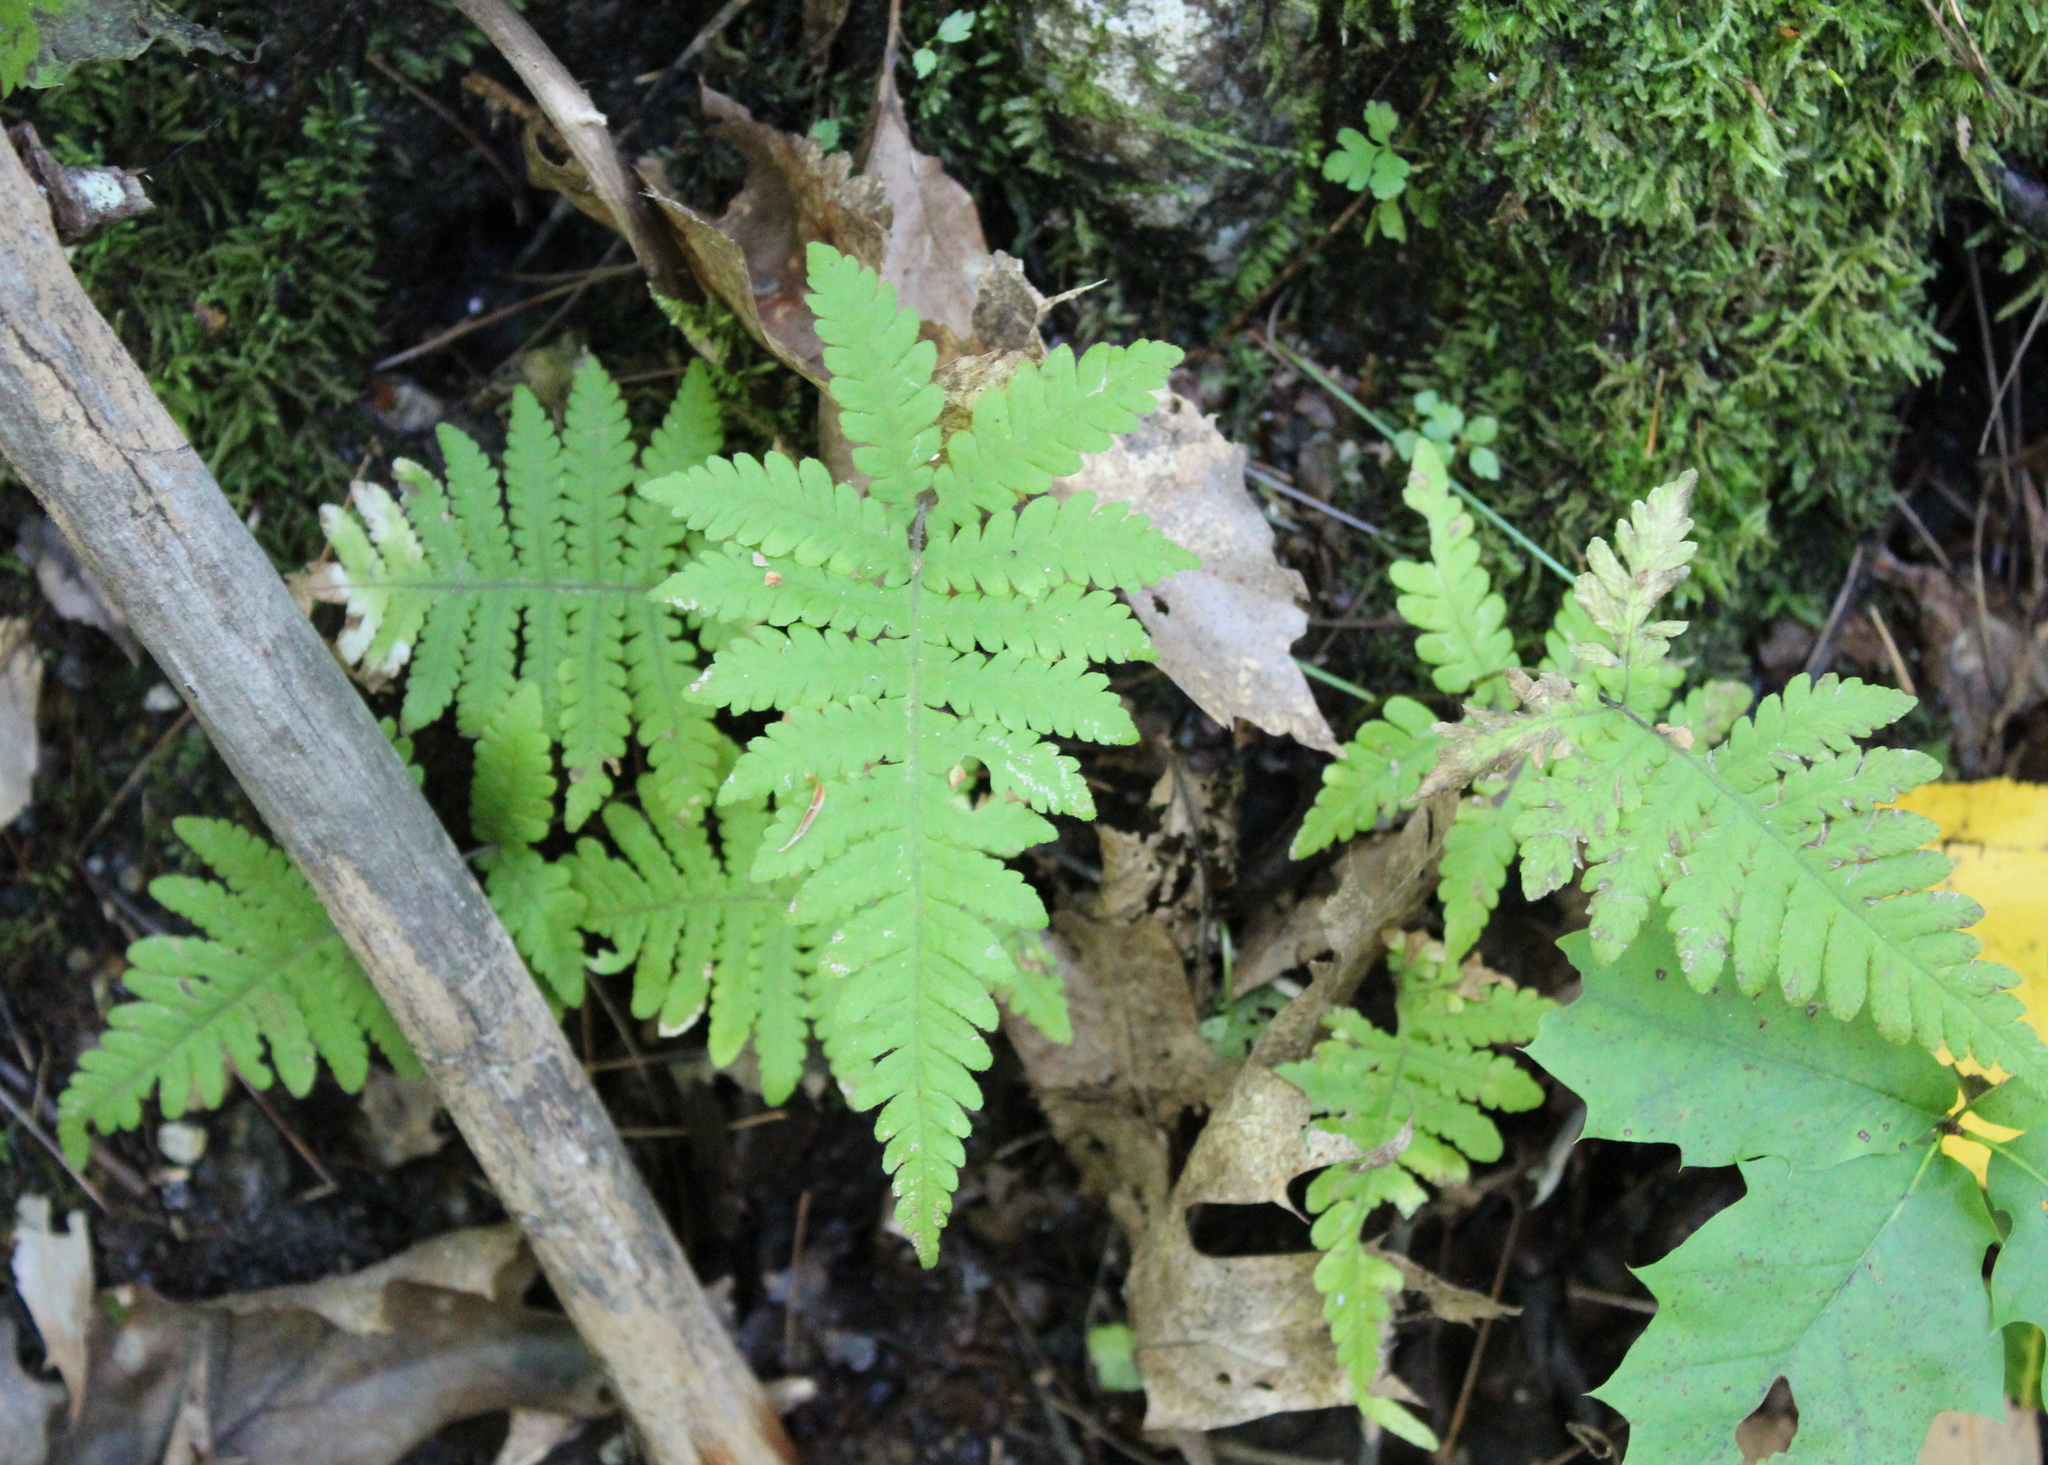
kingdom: Plantae
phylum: Tracheophyta
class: Polypodiopsida
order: Polypodiales
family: Thelypteridaceae
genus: Phegopteris
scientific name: Phegopteris connectilis
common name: Beech fern
